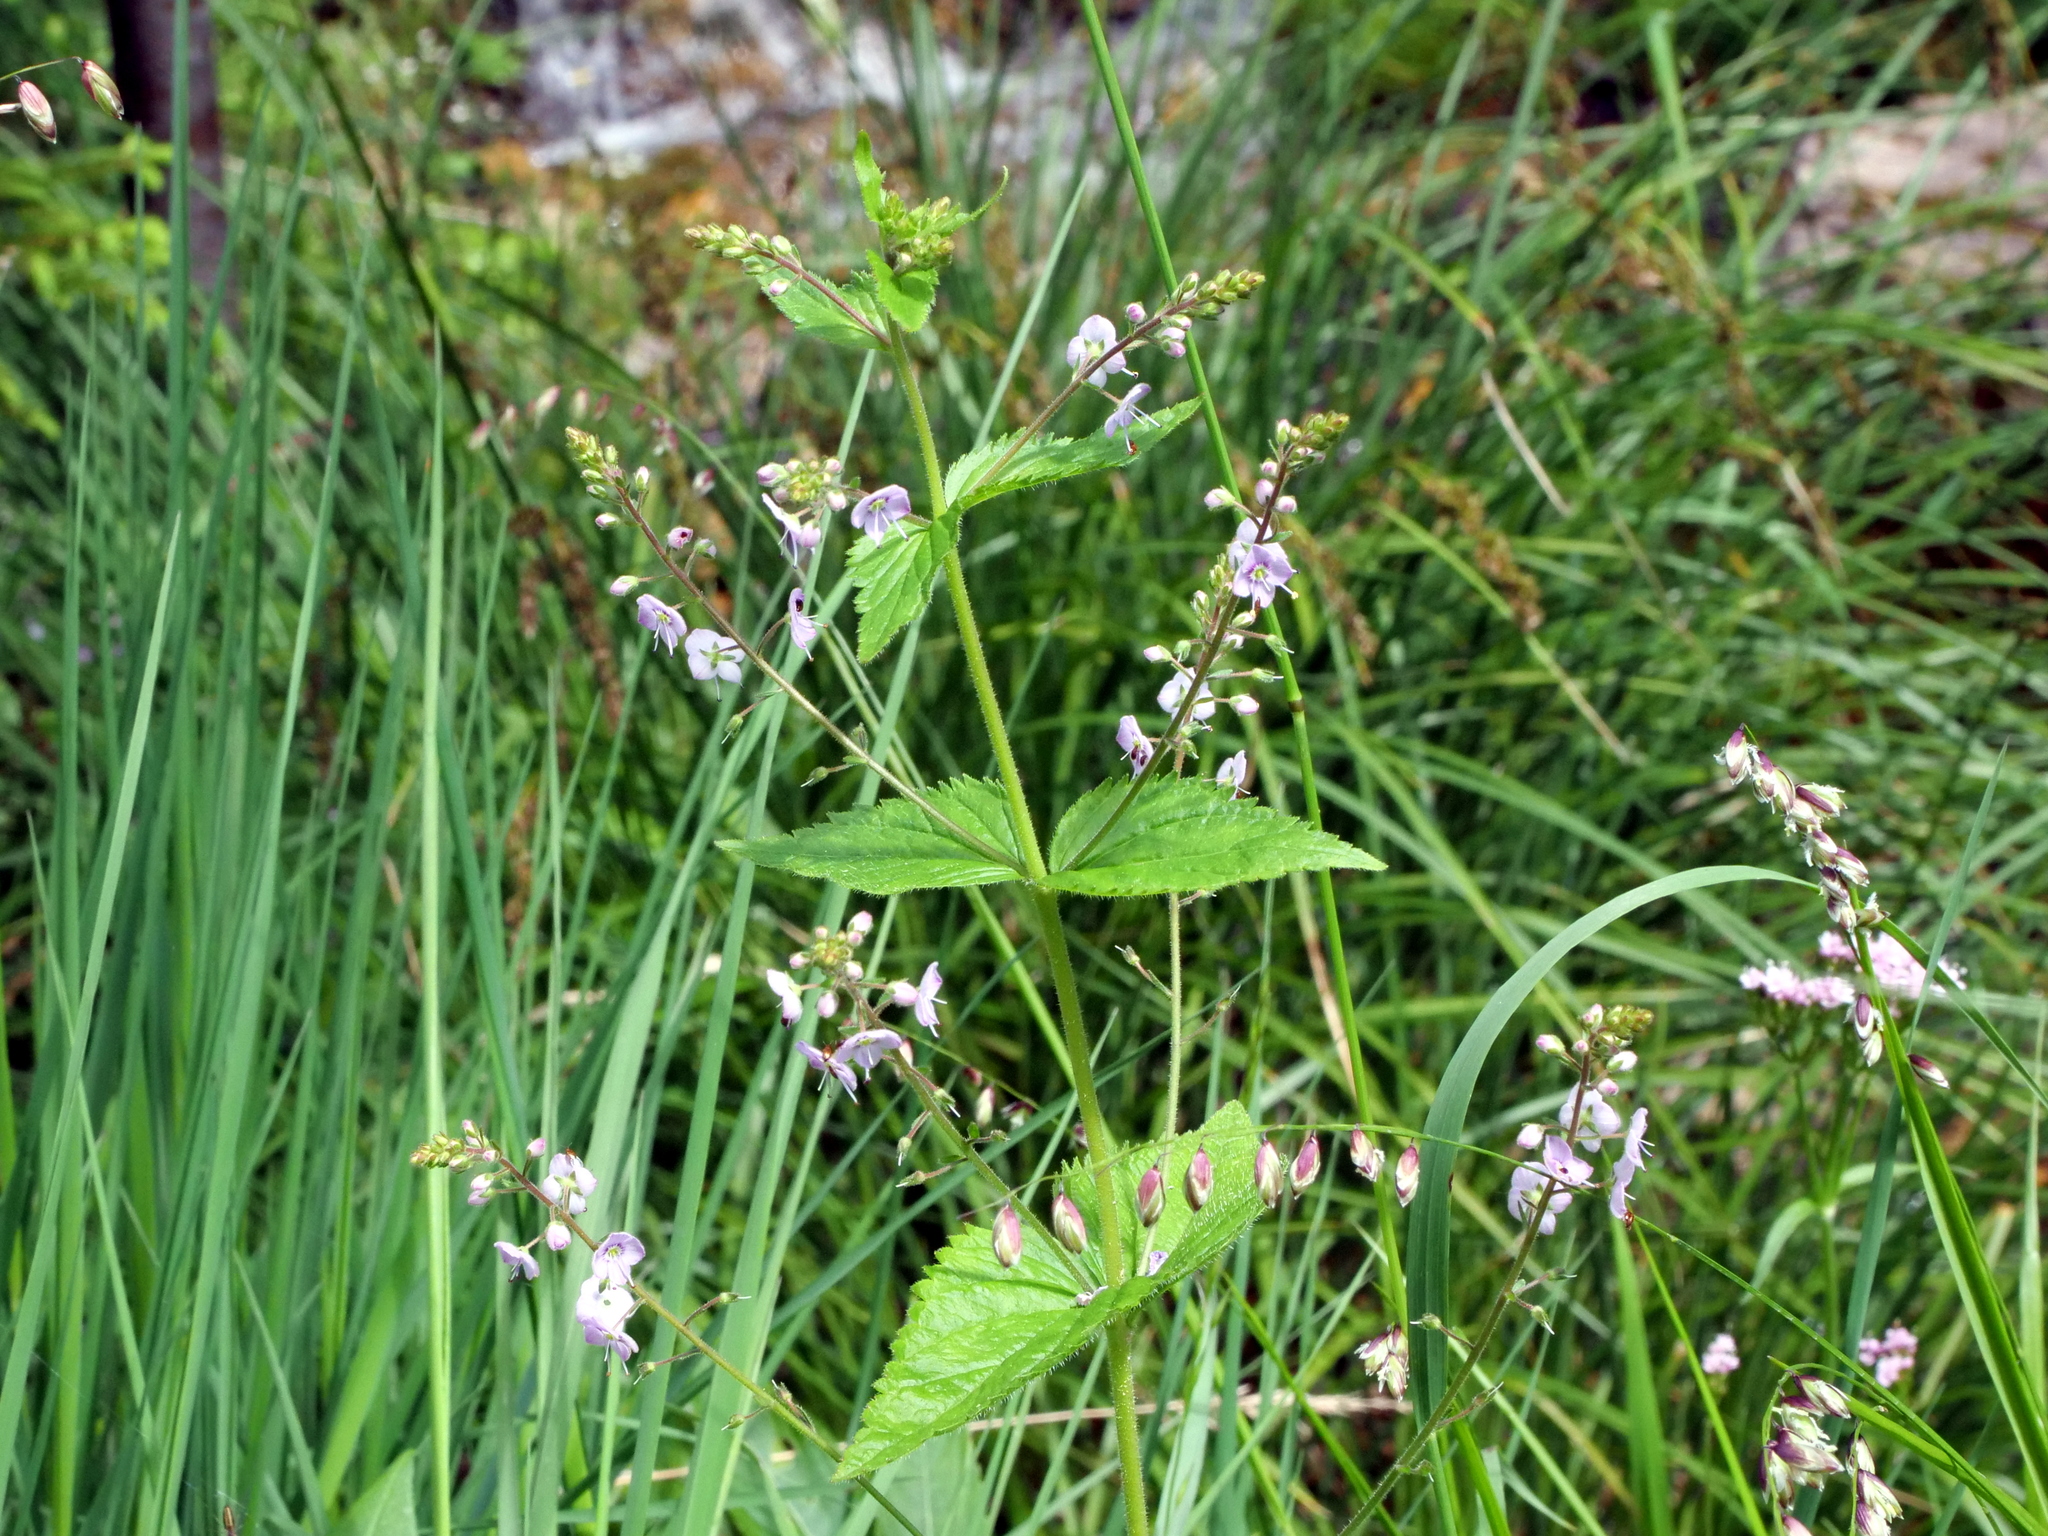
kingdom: Plantae
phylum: Tracheophyta
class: Magnoliopsida
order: Lamiales
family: Plantaginaceae
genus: Veronica
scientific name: Veronica urticifolia
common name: Nettle-leaf speedwell
